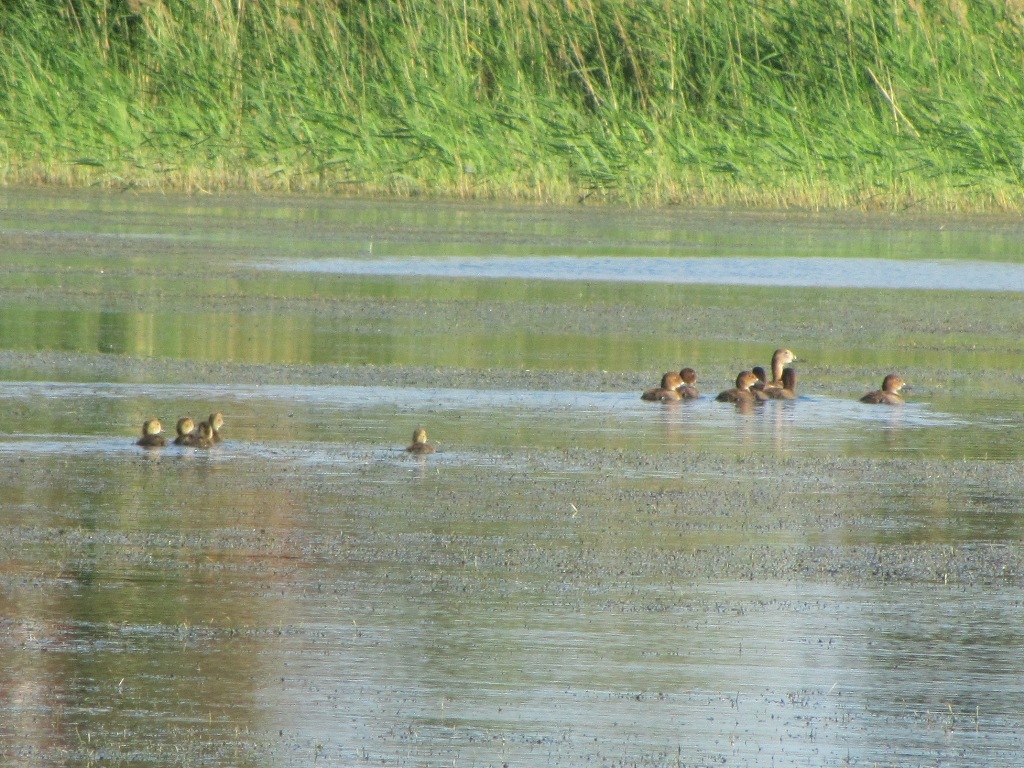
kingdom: Animalia
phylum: Chordata
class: Aves
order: Anseriformes
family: Anatidae
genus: Aythya
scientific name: Aythya ferina
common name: Common pochard
